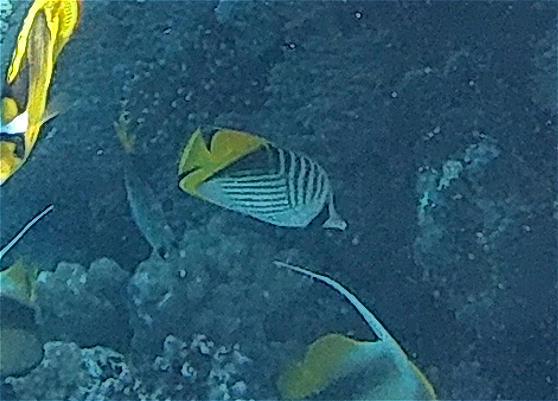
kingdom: Animalia
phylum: Chordata
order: Perciformes
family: Chaetodontidae
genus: Chaetodon
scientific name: Chaetodon auriga
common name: Threadfin butterflyfish
